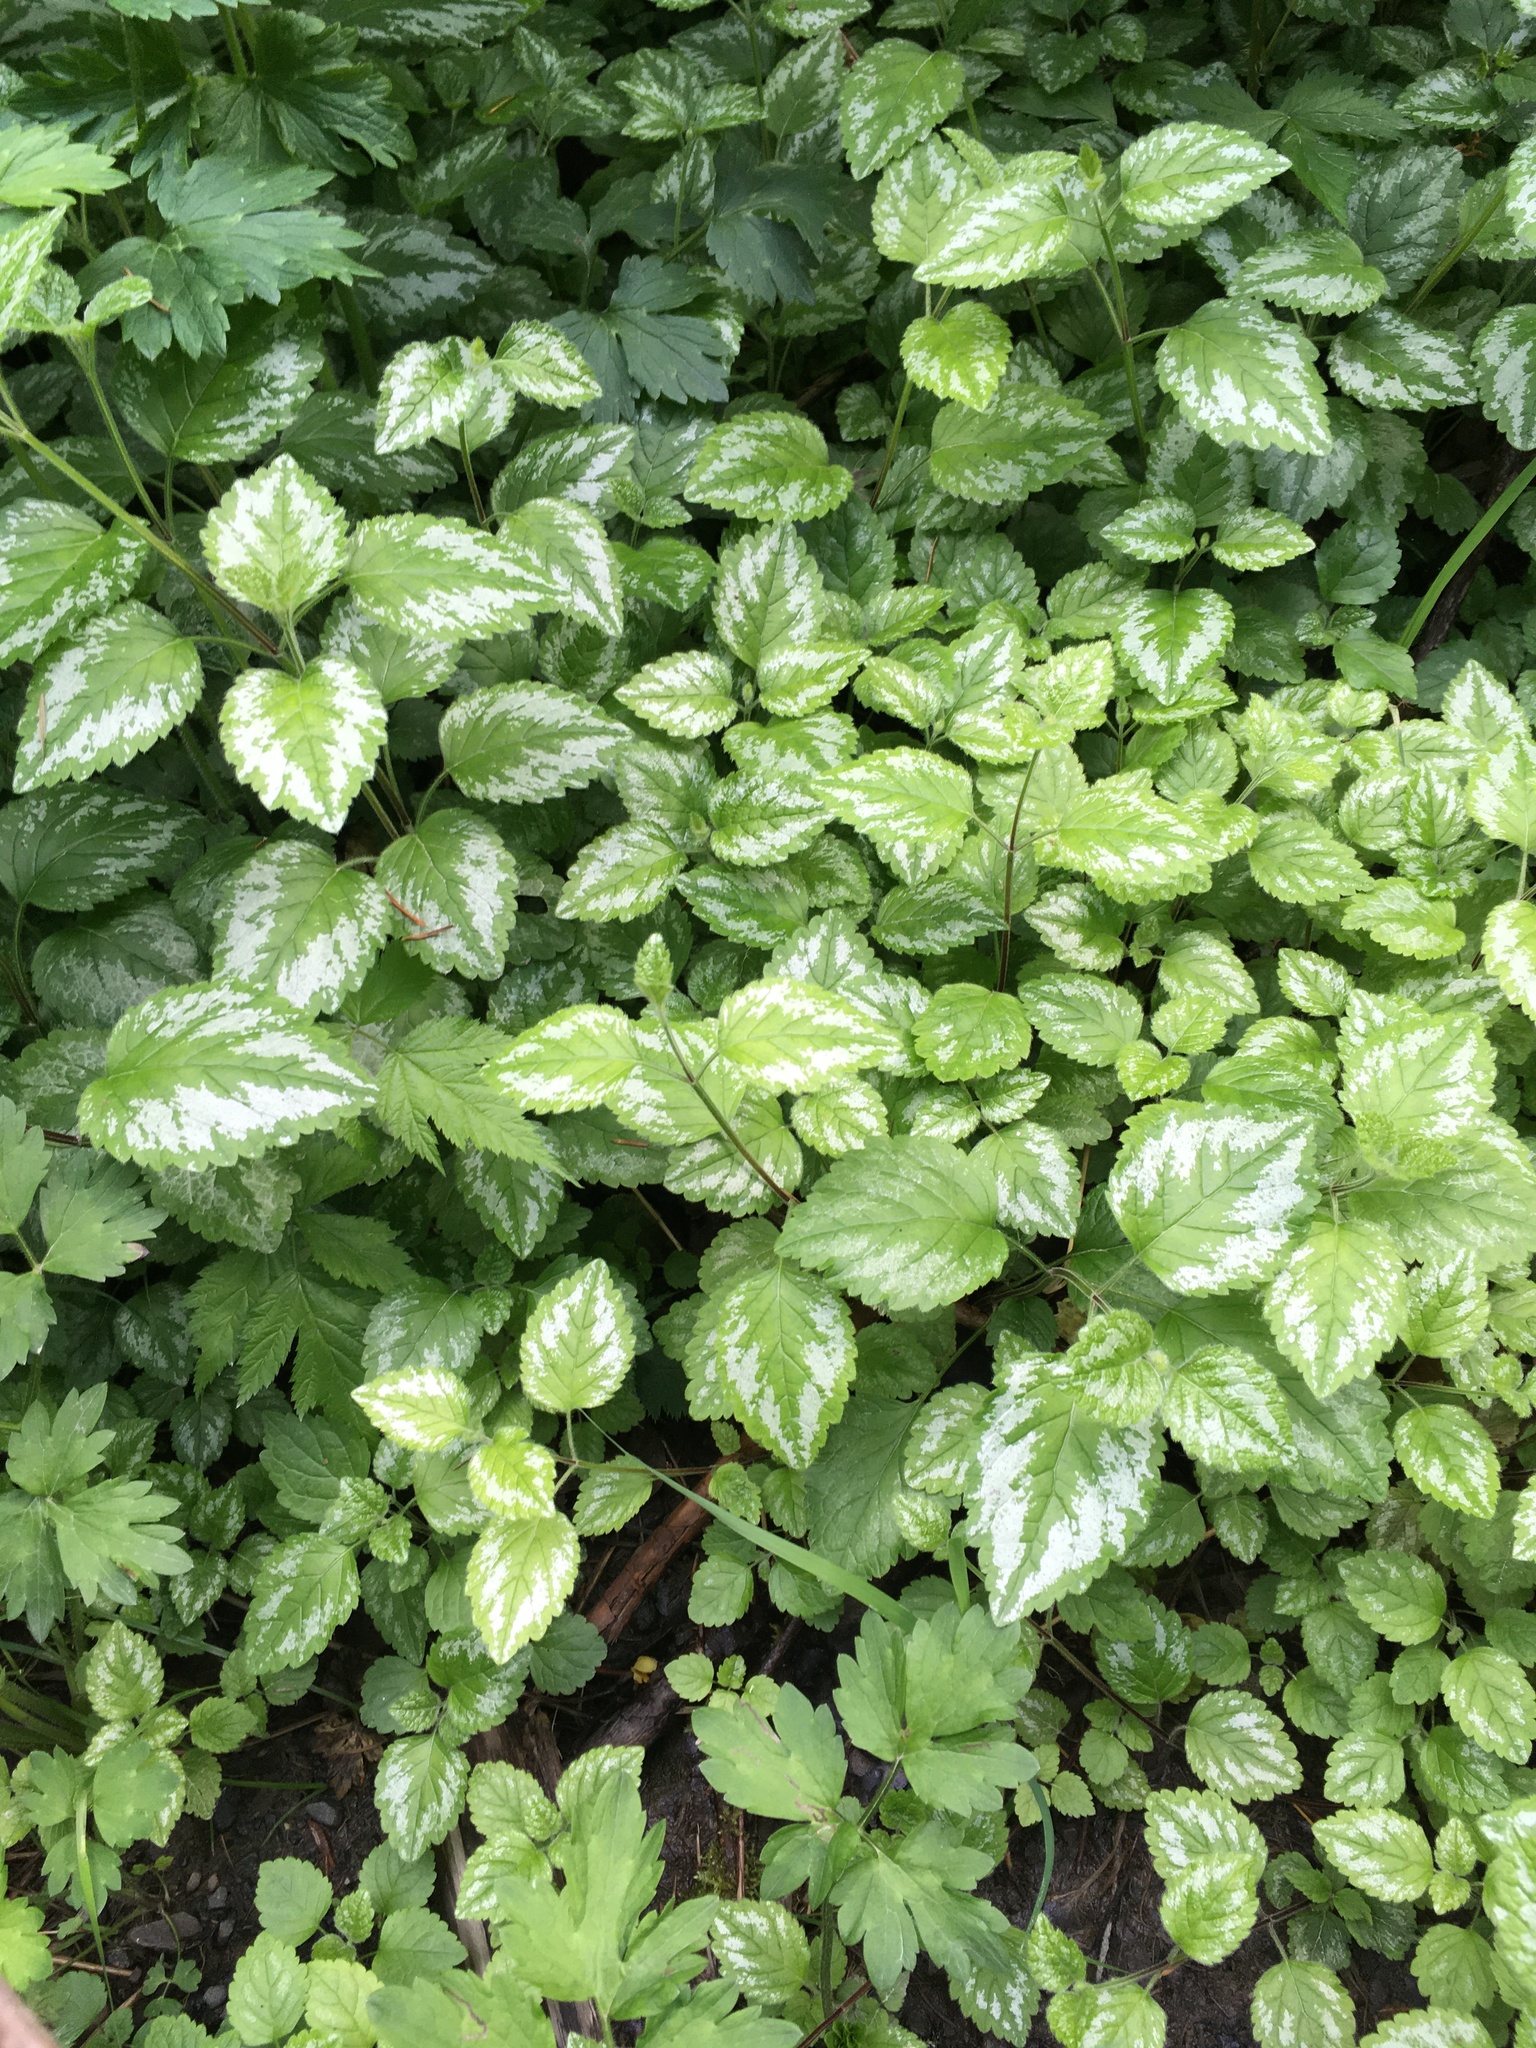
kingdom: Plantae
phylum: Tracheophyta
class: Magnoliopsida
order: Lamiales
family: Lamiaceae
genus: Lamium
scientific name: Lamium galeobdolon
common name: Yellow archangel
